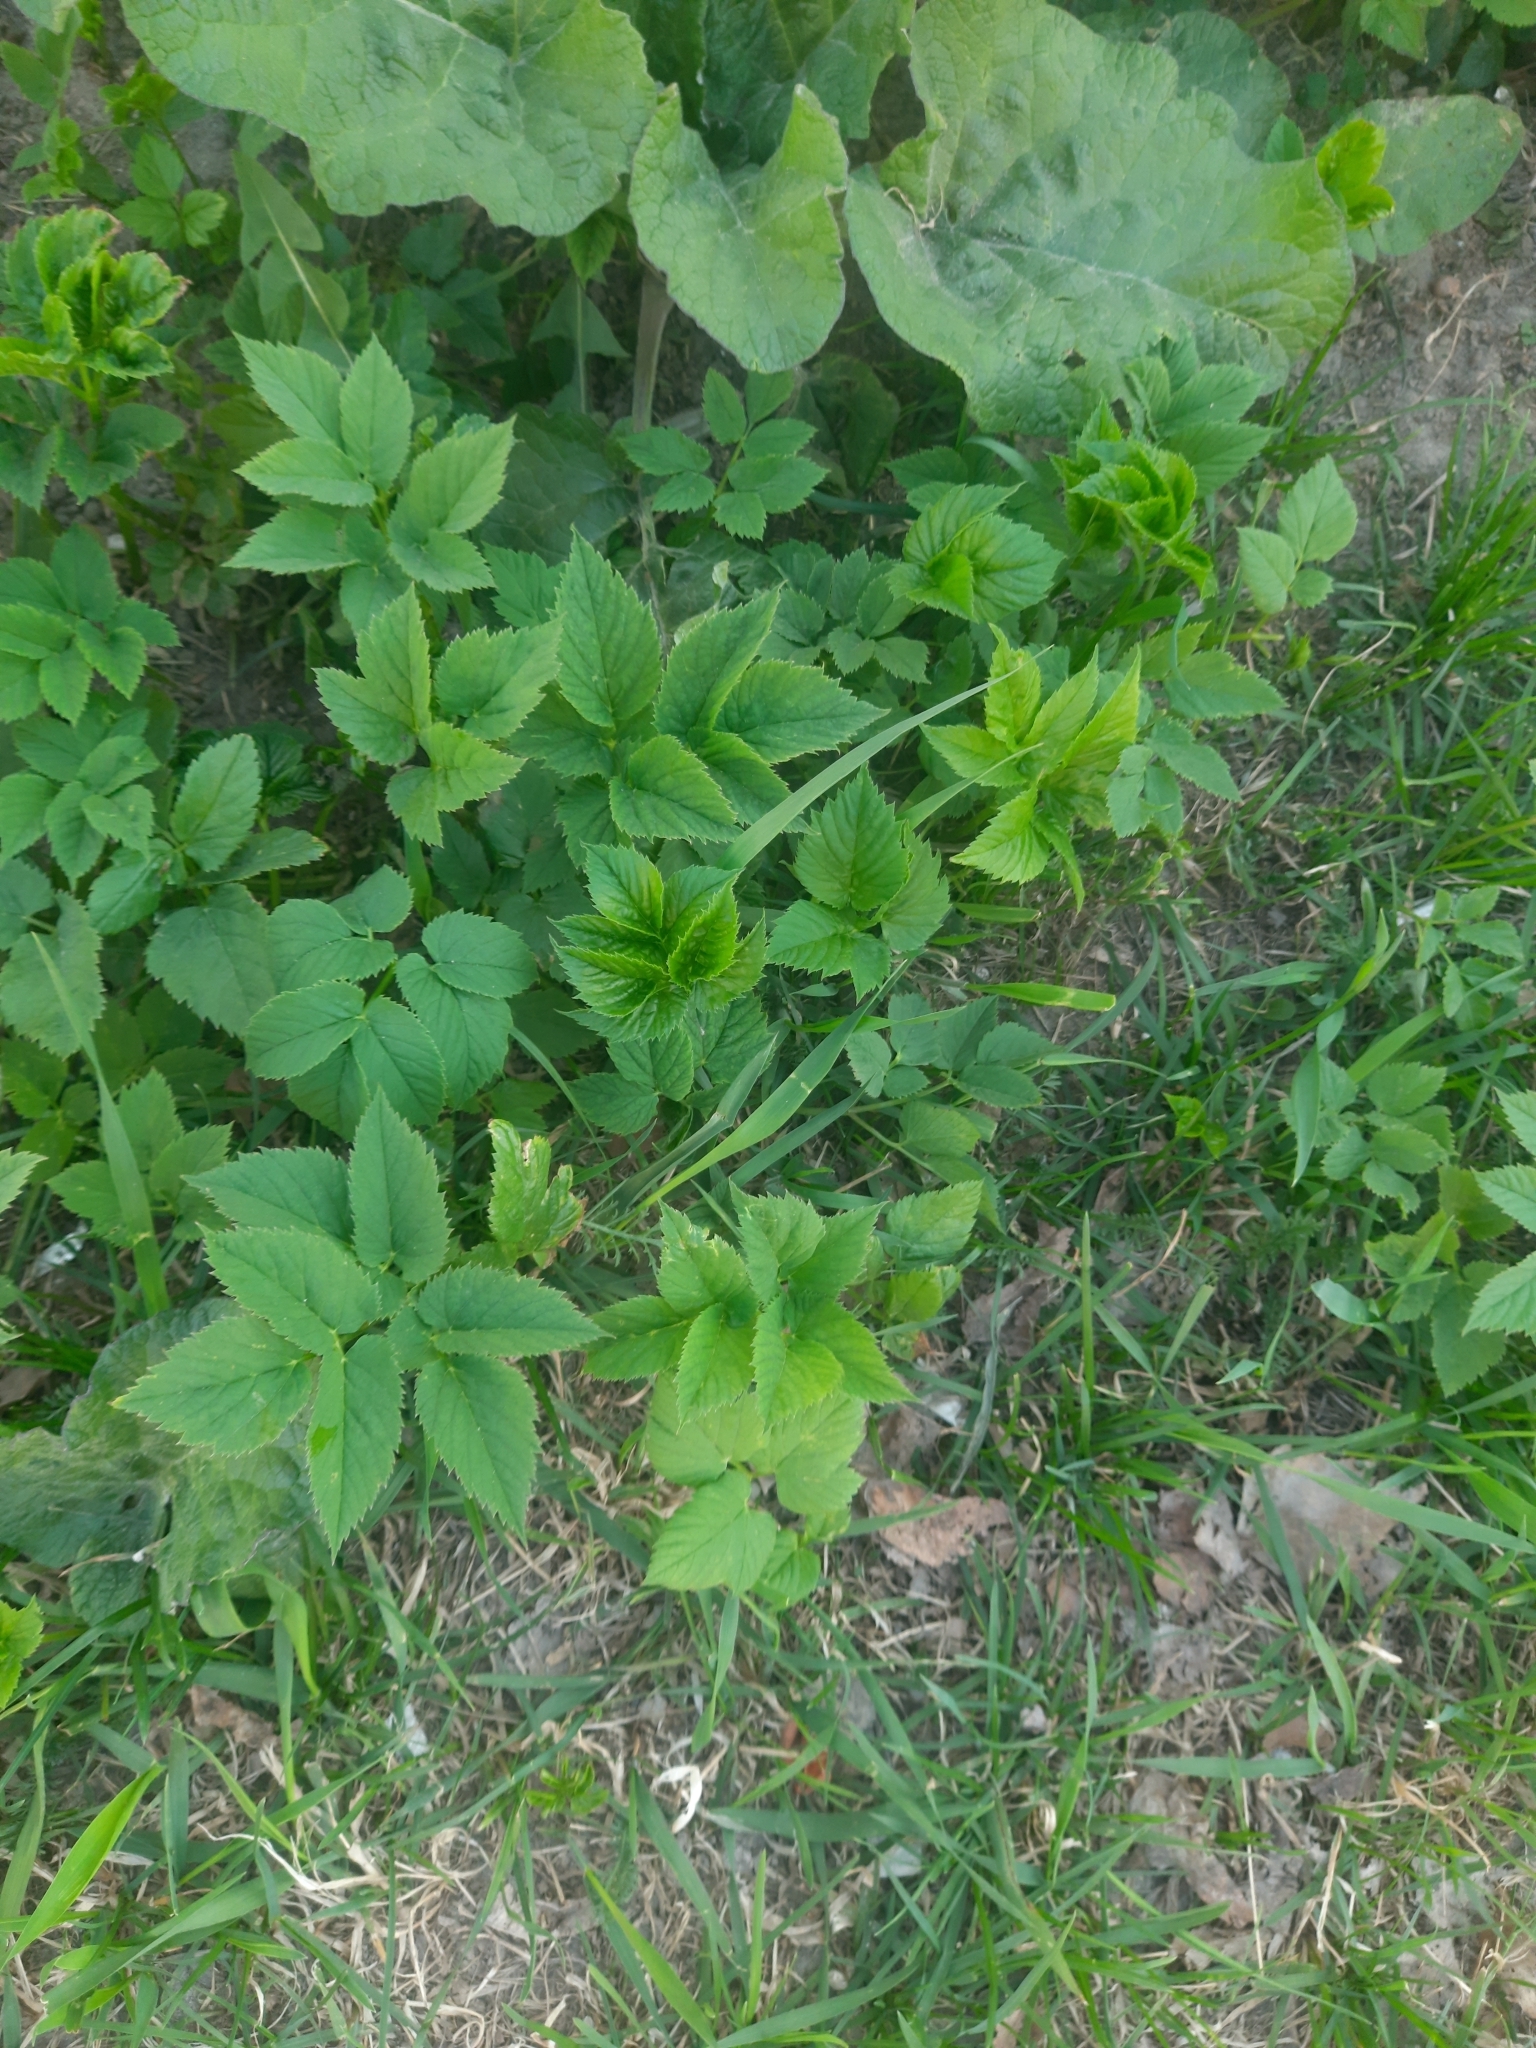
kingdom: Plantae
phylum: Tracheophyta
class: Magnoliopsida
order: Apiales
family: Apiaceae
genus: Aegopodium
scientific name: Aegopodium podagraria
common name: Ground-elder
